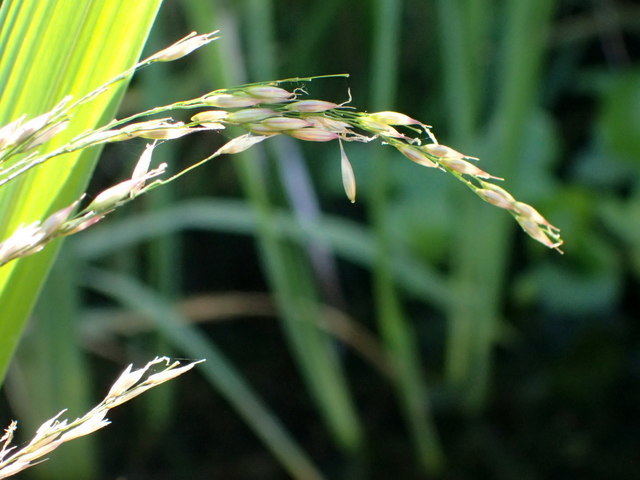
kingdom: Plantae
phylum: Tracheophyta
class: Liliopsida
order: Poales
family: Poaceae
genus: Zizania
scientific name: Zizania aquatica
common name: Annual wildrice
